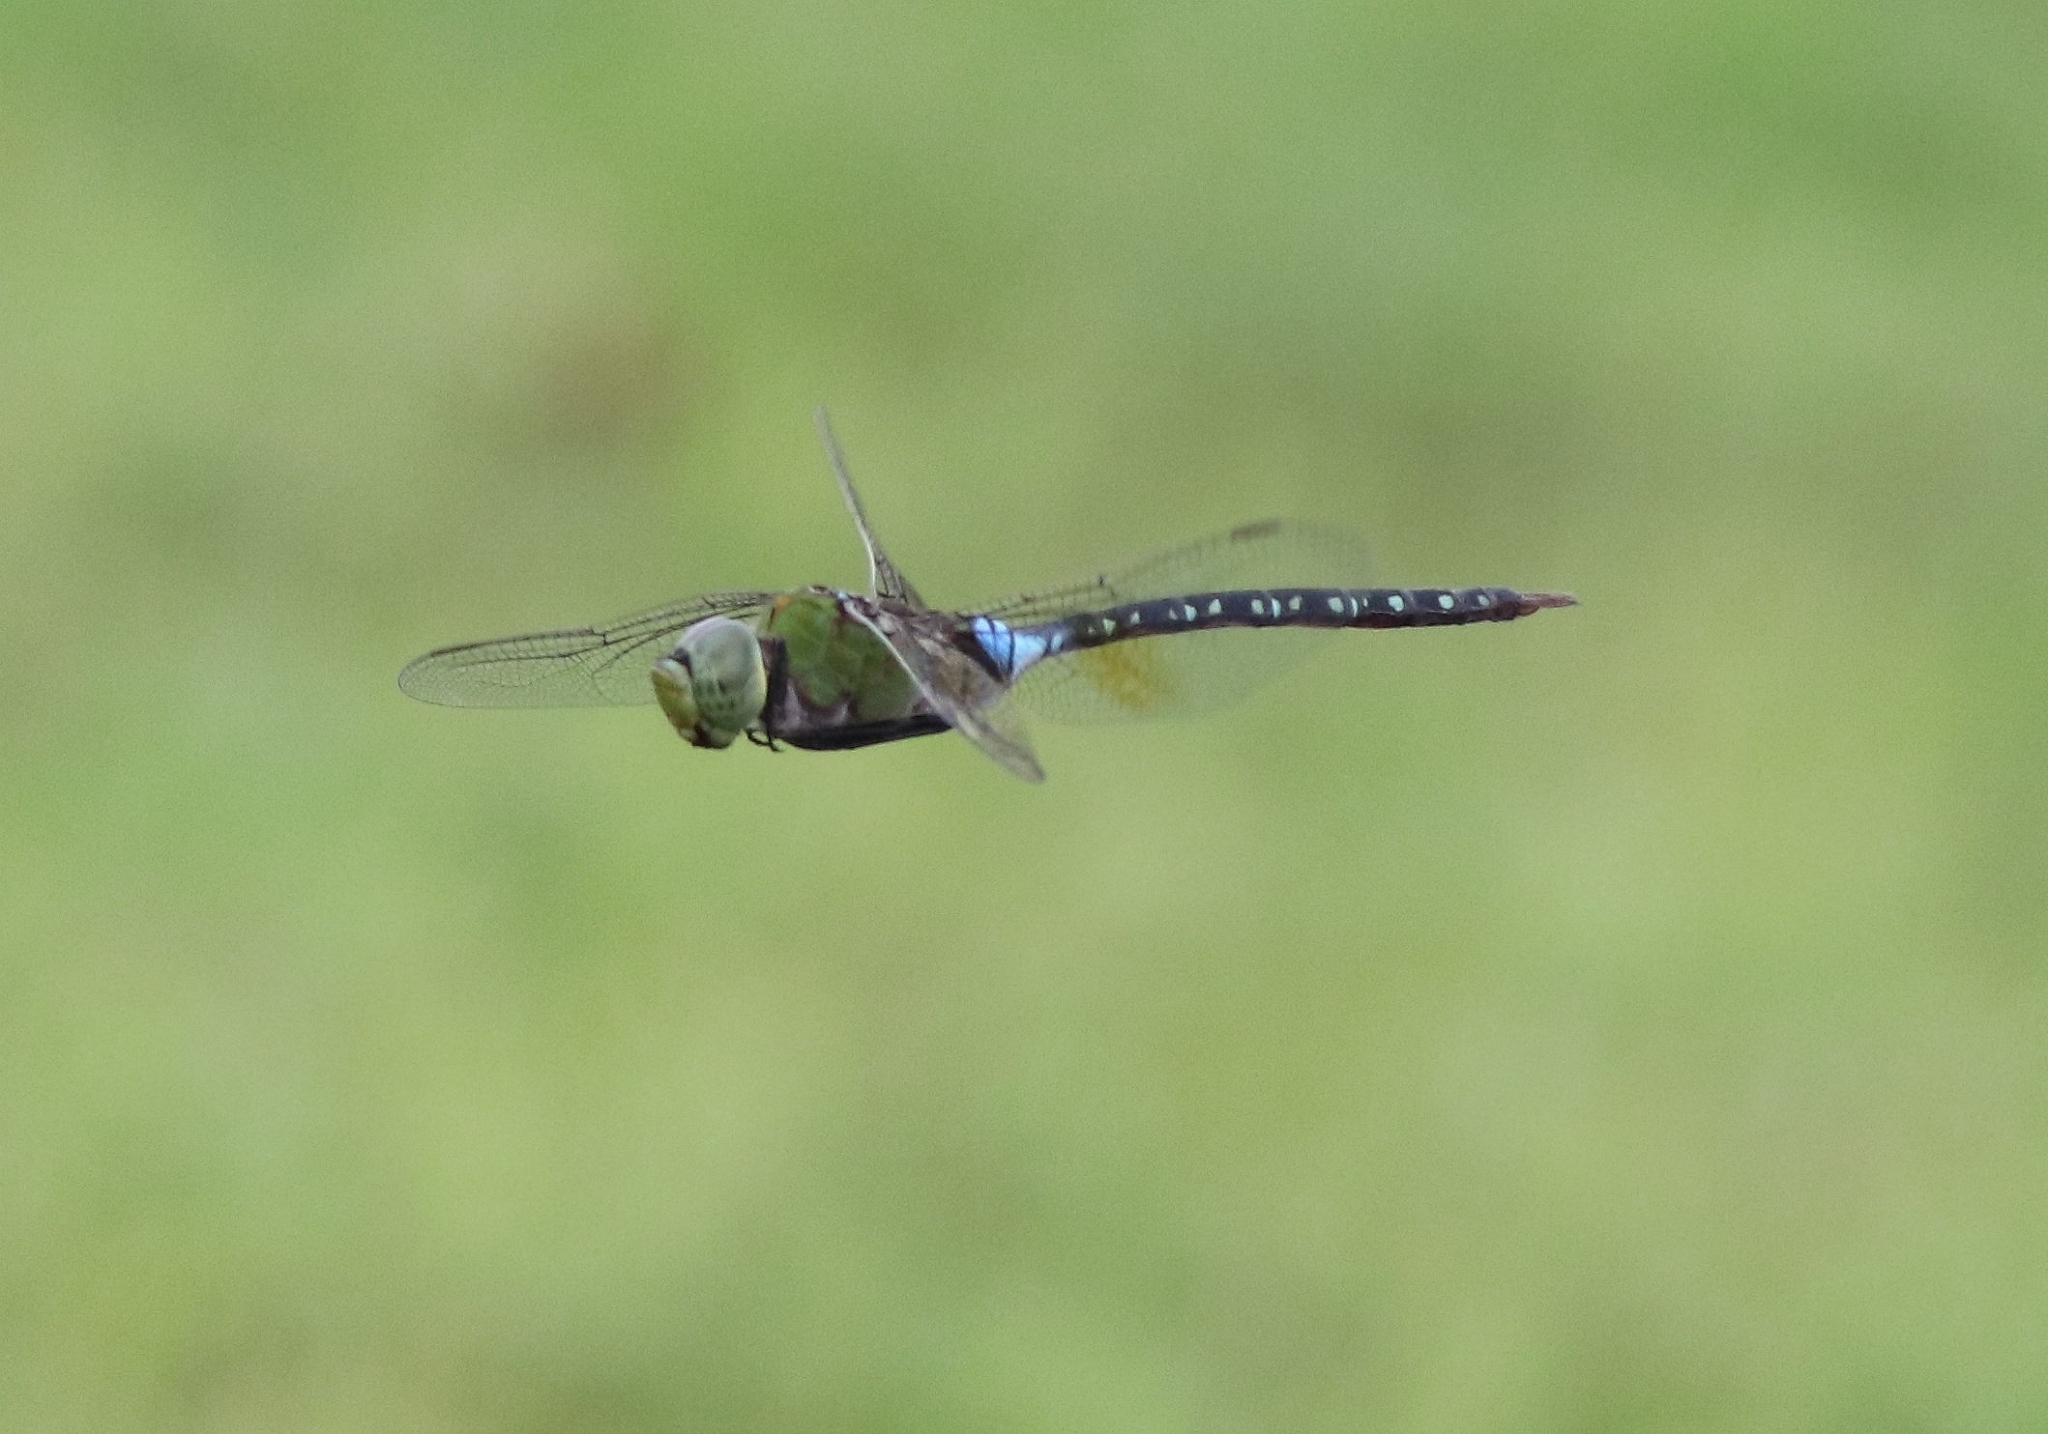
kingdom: Animalia
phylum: Arthropoda
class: Insecta
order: Odonata
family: Aeshnidae
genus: Anax
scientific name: Anax guttatus
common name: Emperor
